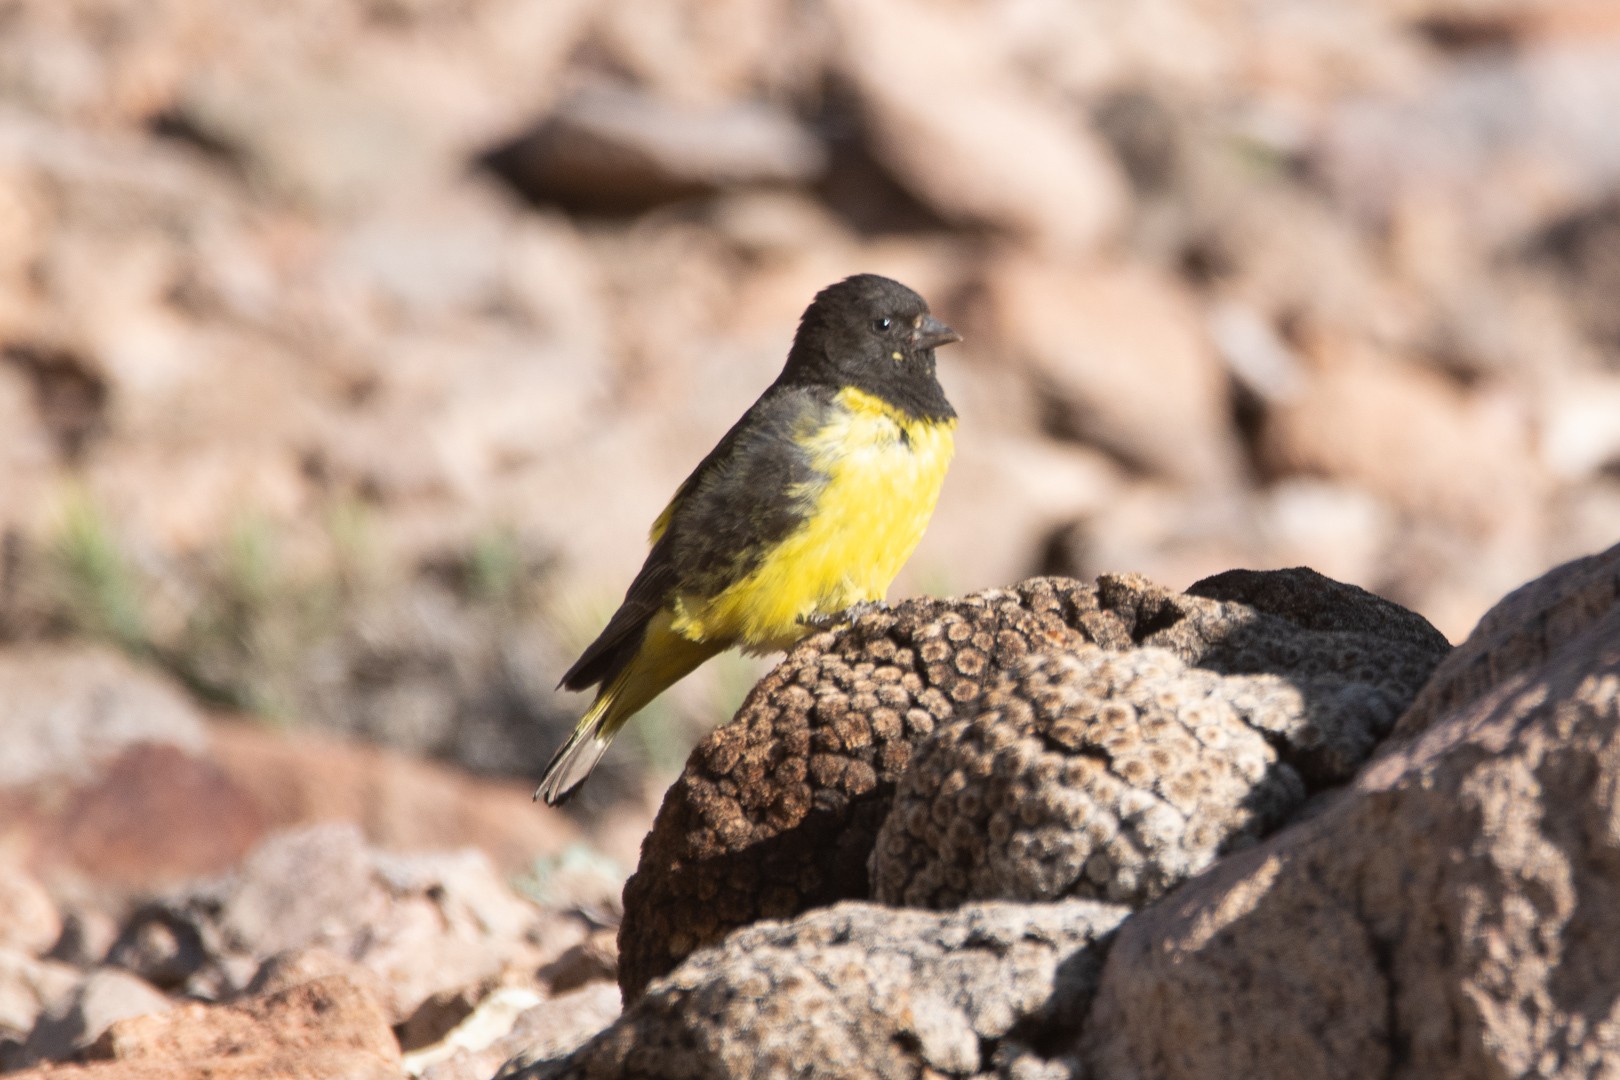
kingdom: Animalia
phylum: Chordata
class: Aves
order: Passeriformes
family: Fringillidae
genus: Spinus
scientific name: Spinus uropygialis
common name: Yellow-rumped siskin
